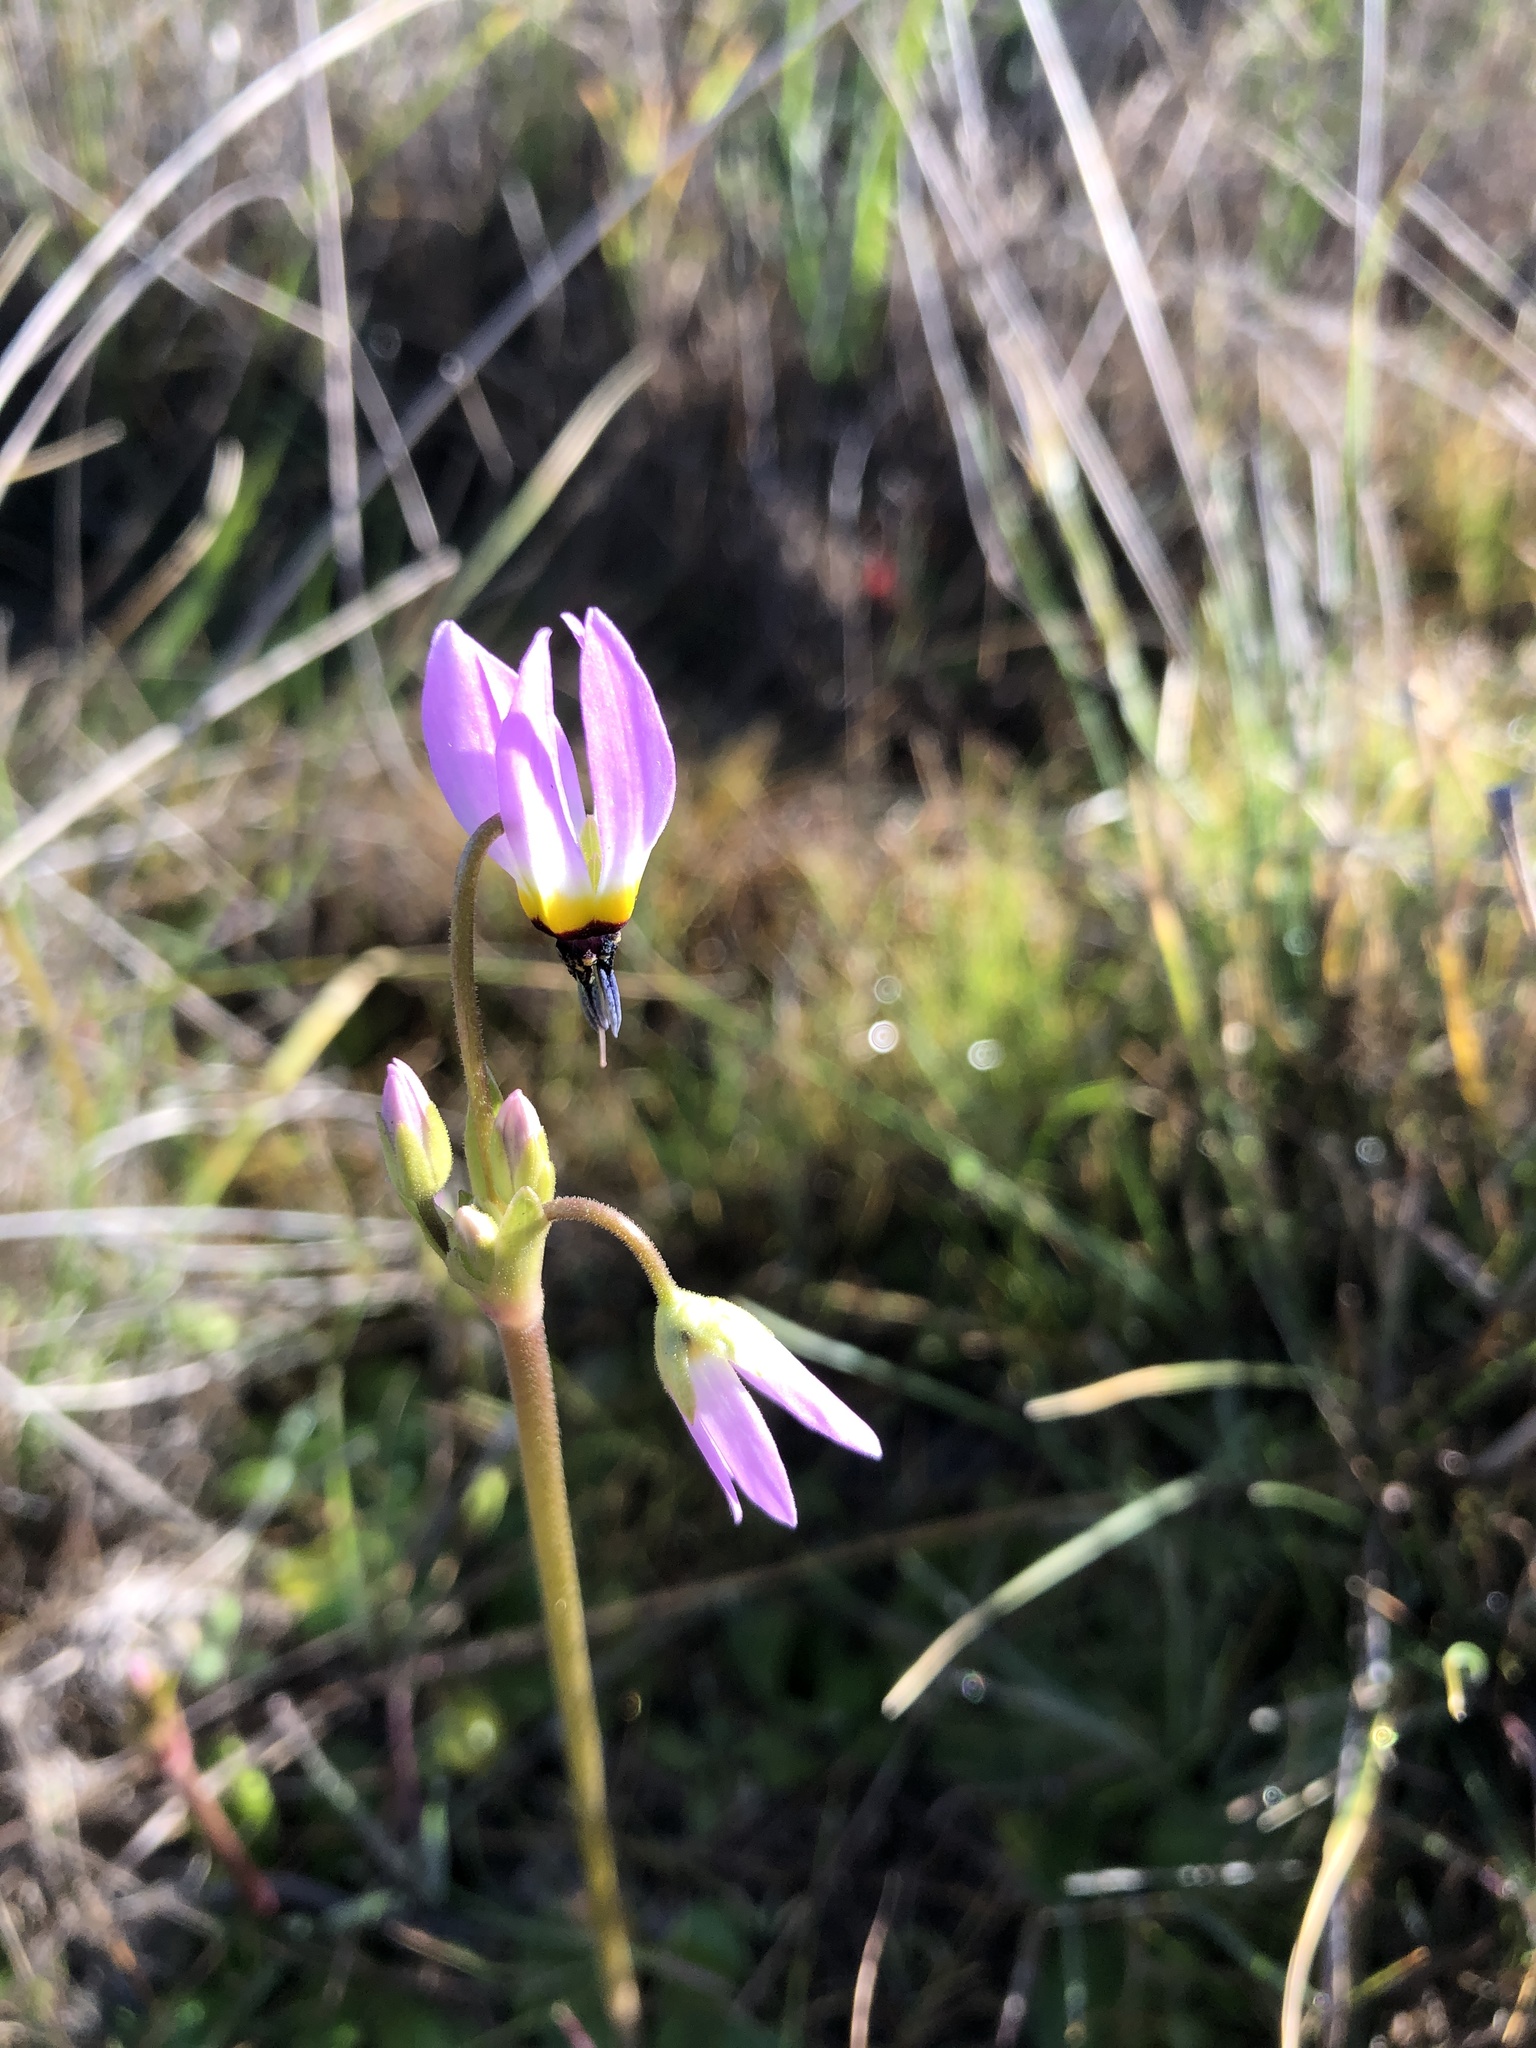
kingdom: Plantae
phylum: Tracheophyta
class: Magnoliopsida
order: Ericales
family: Primulaceae
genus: Dodecatheon
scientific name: Dodecatheon clevelandii
